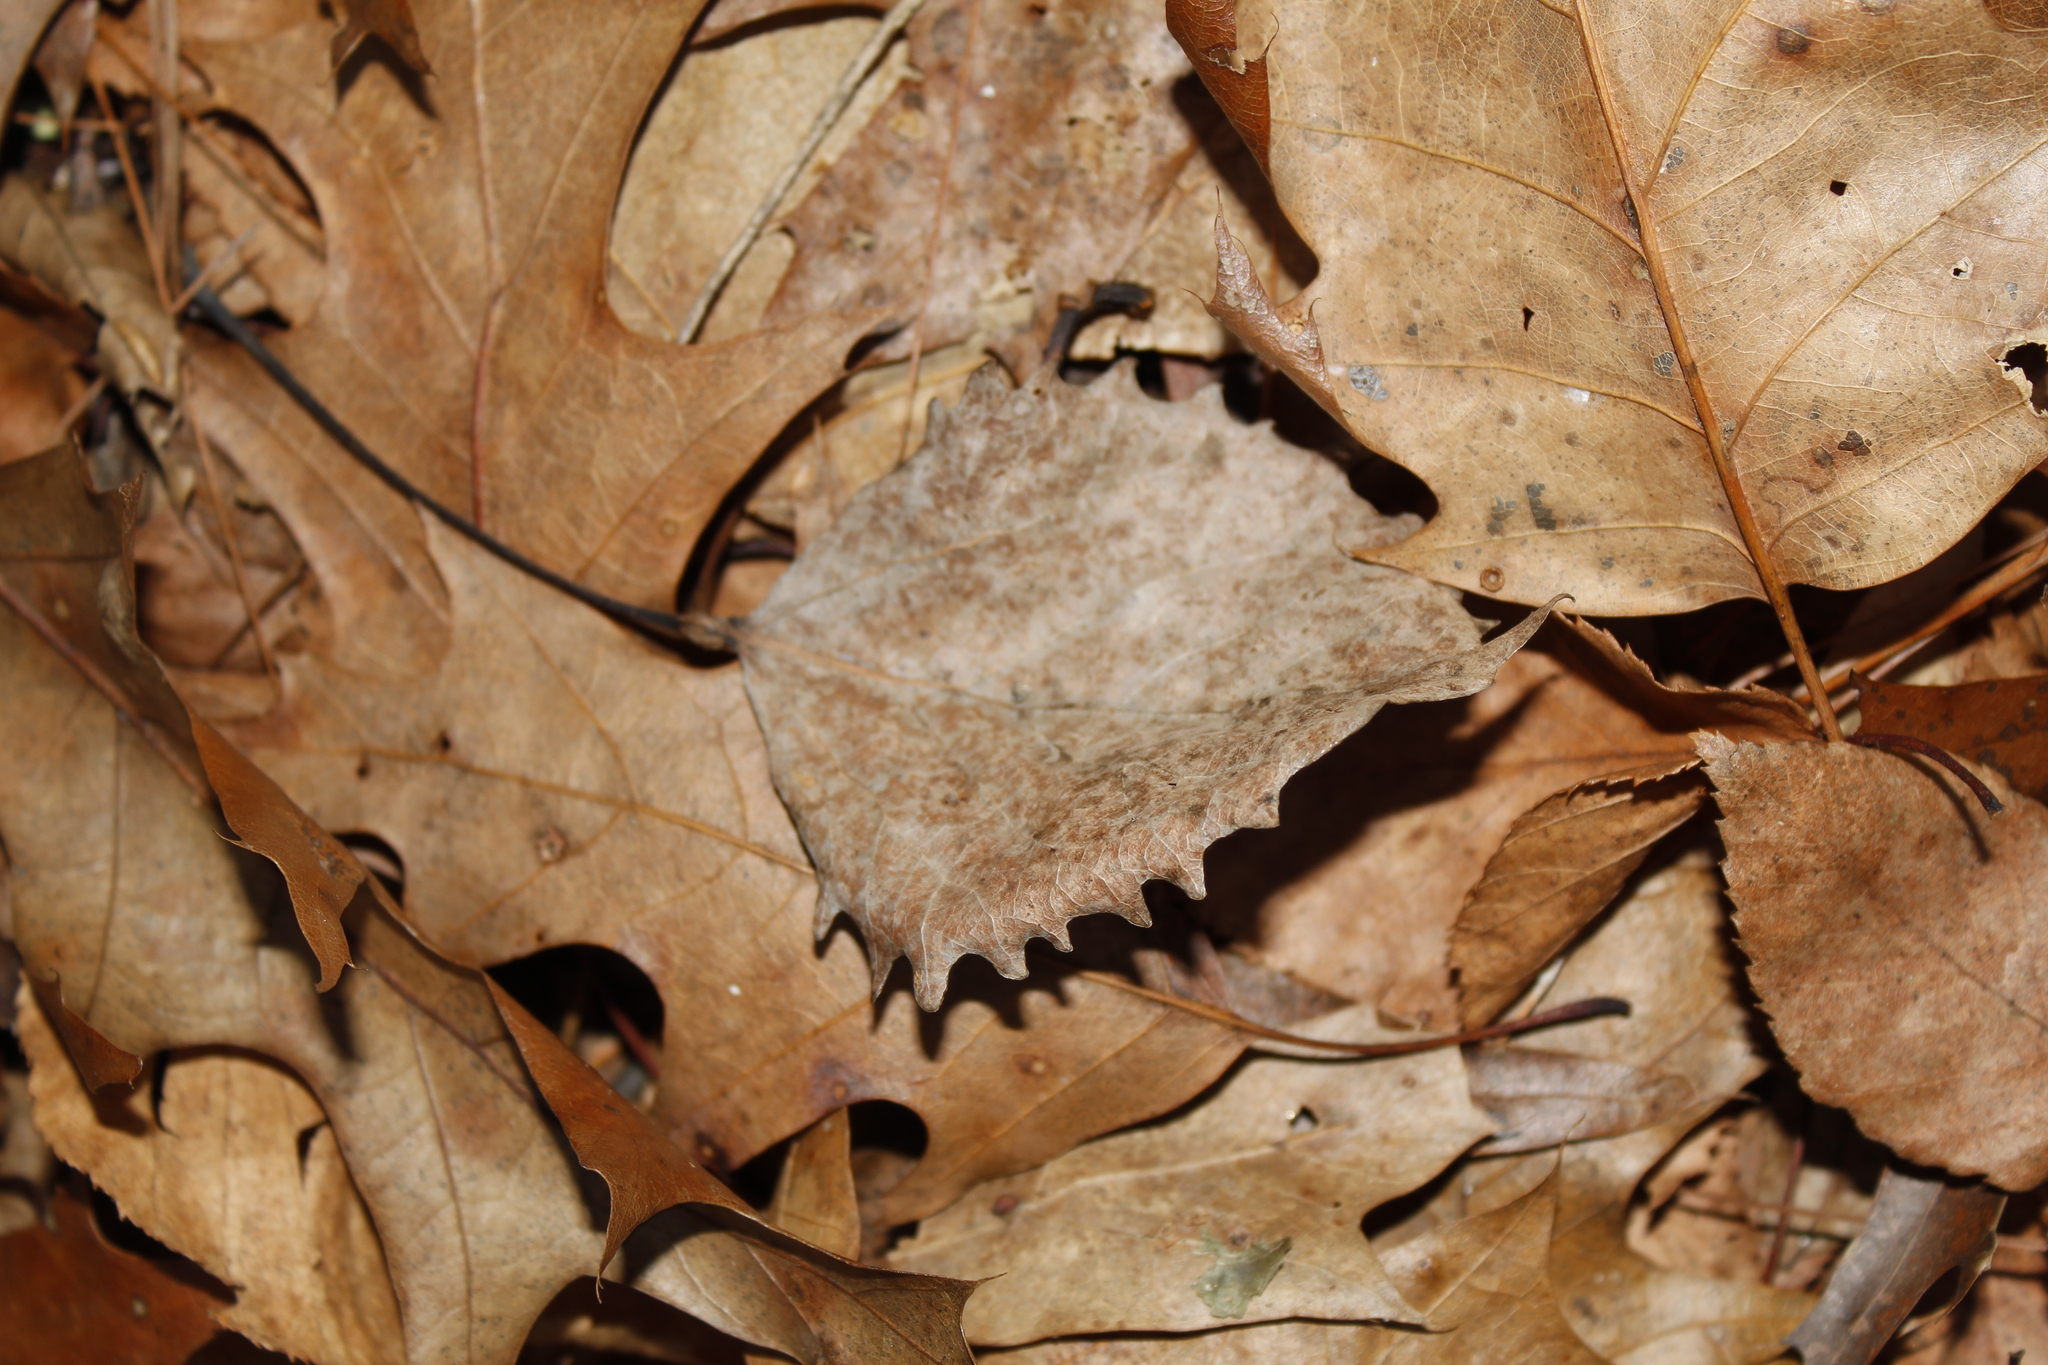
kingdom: Plantae
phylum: Tracheophyta
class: Magnoliopsida
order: Malpighiales
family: Salicaceae
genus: Populus
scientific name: Populus grandidentata
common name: Bigtooth aspen
